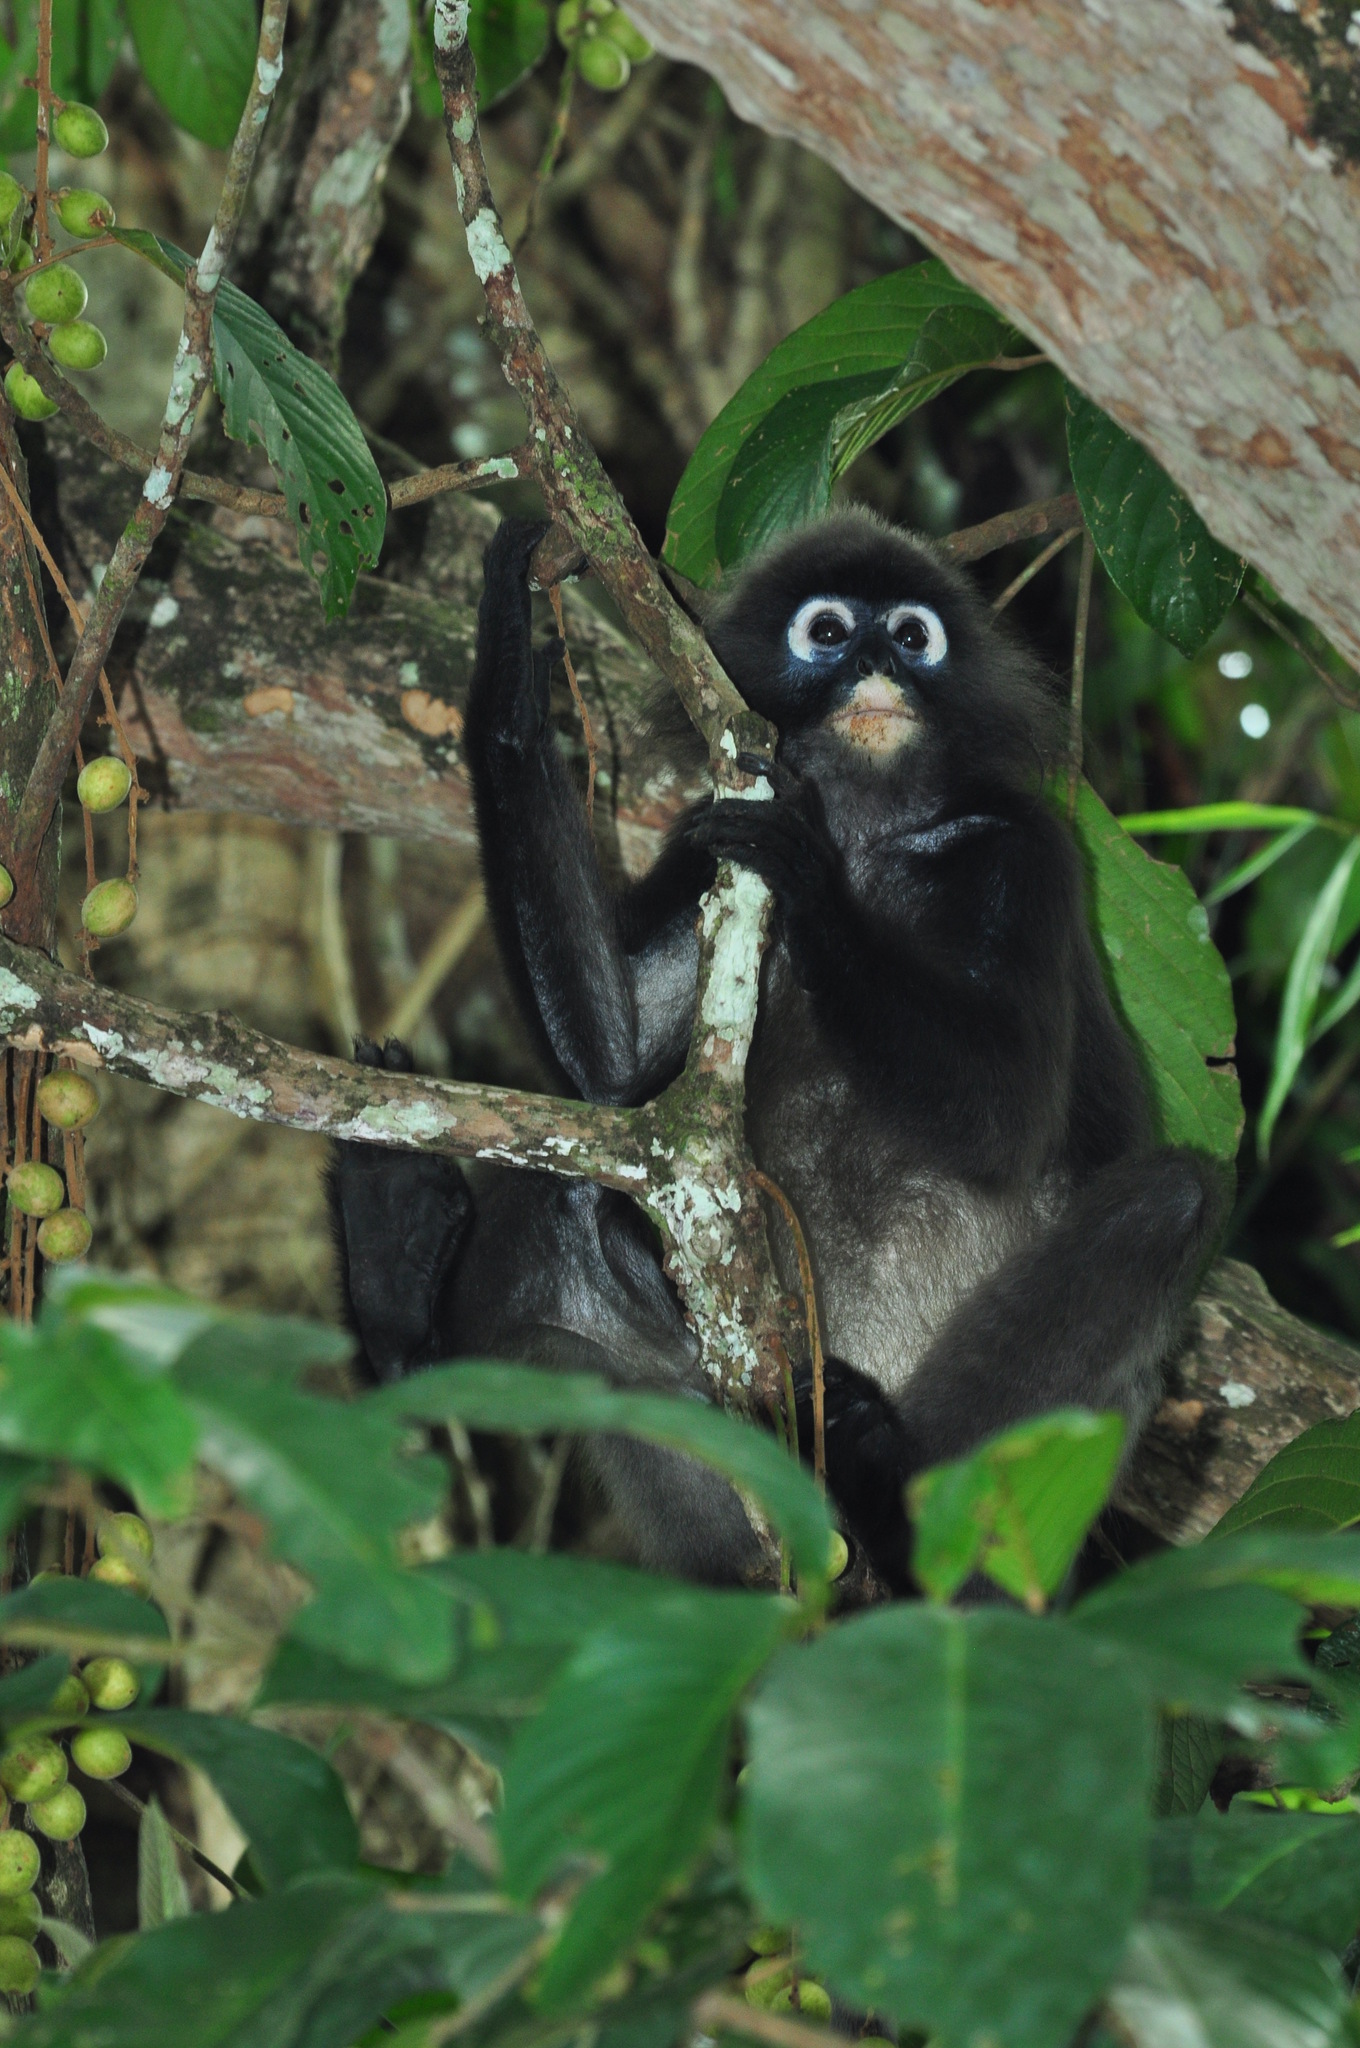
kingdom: Animalia
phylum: Chordata
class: Mammalia
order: Primates
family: Cercopithecidae
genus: Trachypithecus
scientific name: Trachypithecus obscurus
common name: Dusky leaf-monkey
